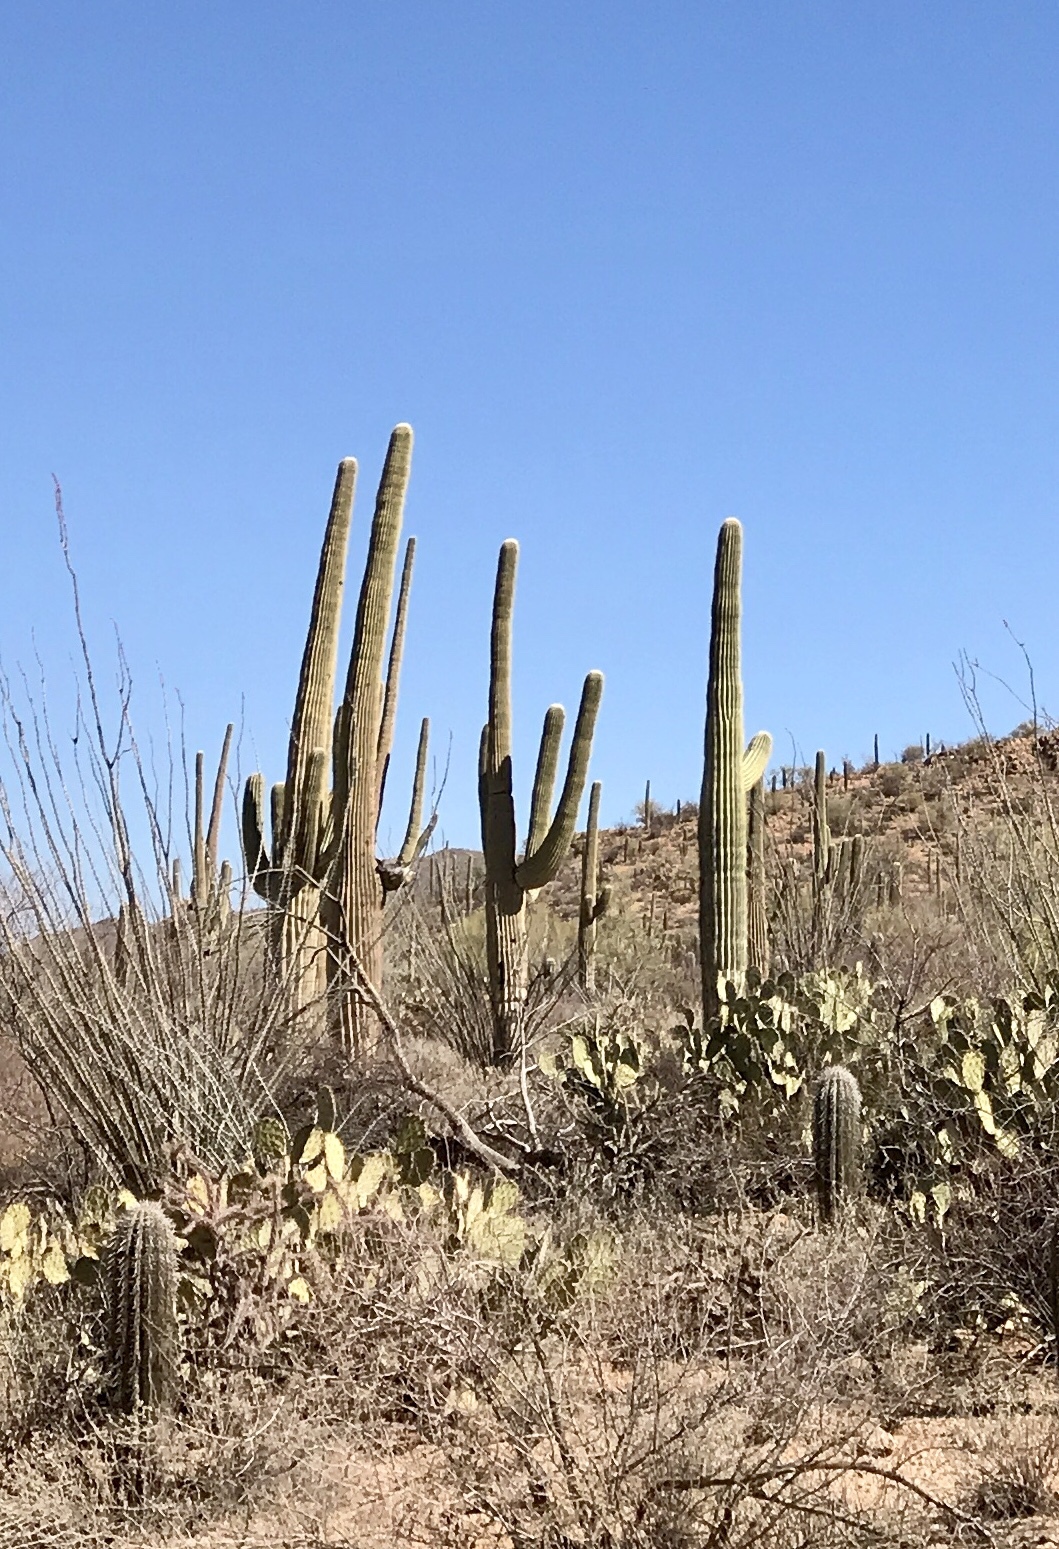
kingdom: Plantae
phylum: Tracheophyta
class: Magnoliopsida
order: Caryophyllales
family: Cactaceae
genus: Carnegiea
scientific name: Carnegiea gigantea
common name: Saguaro
